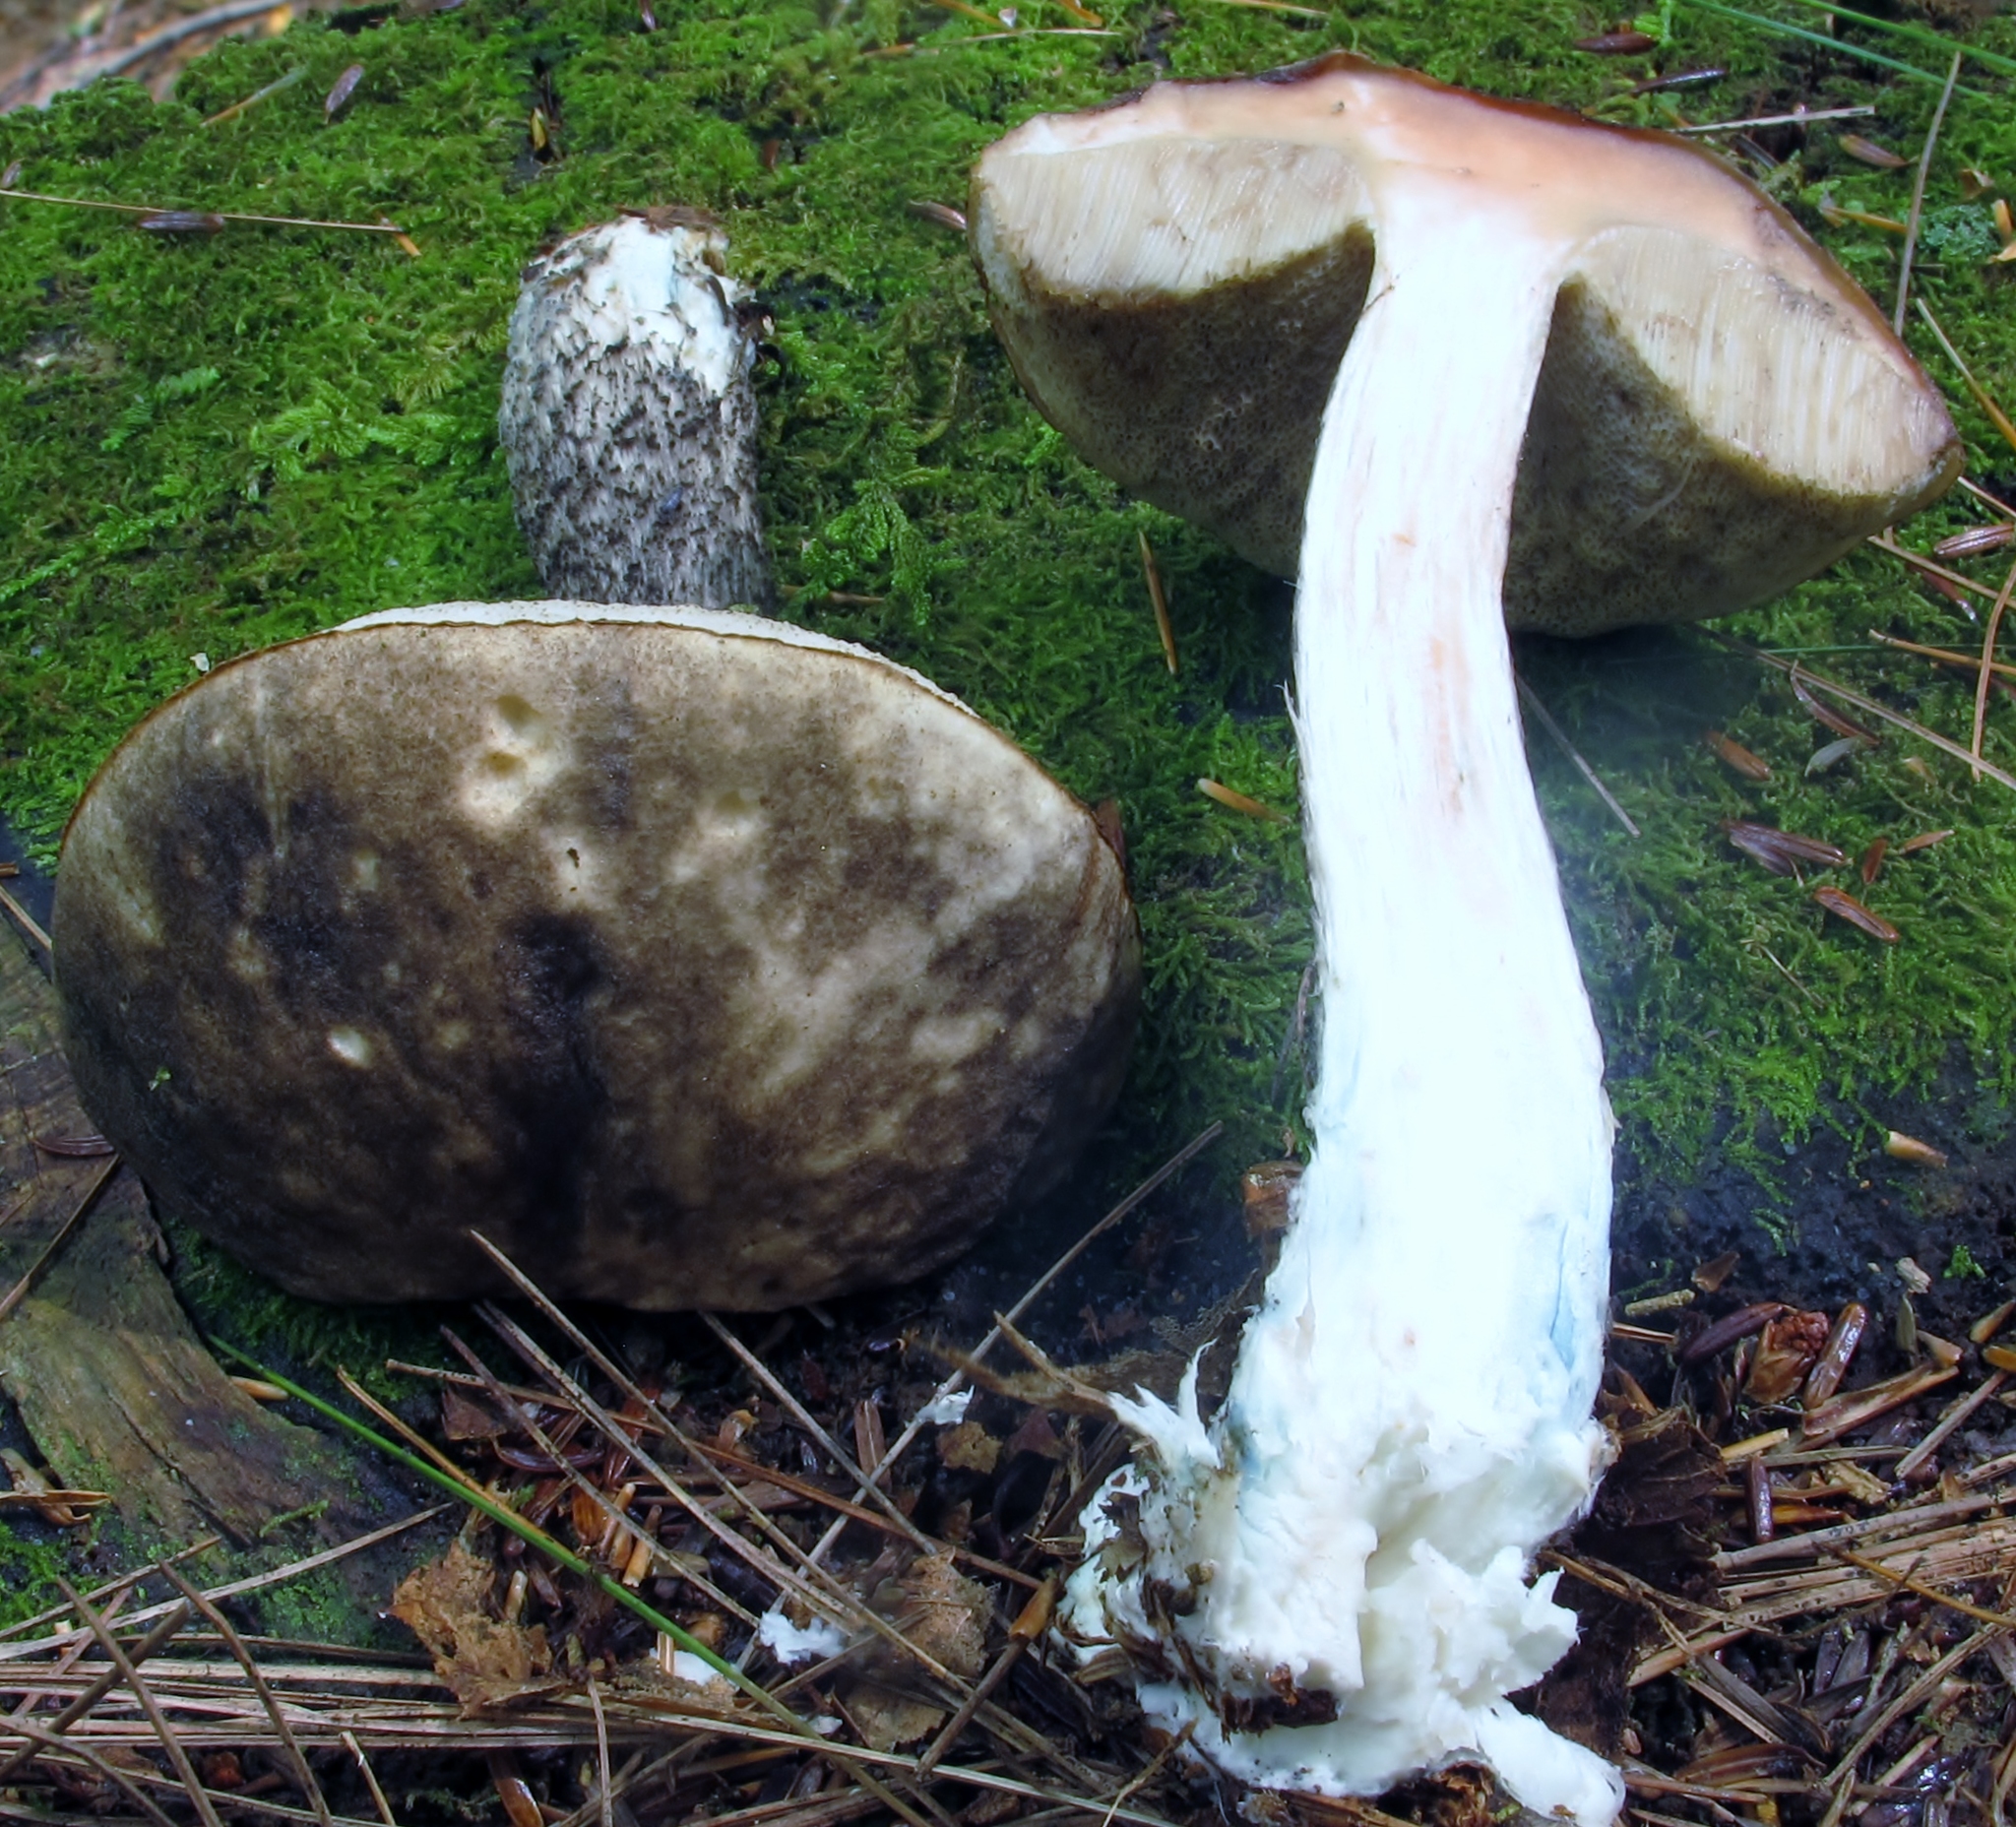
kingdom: Fungi
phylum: Basidiomycota
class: Agaricomycetes
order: Boletales
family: Boletaceae
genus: Leccinum
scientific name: Leccinum snellii
